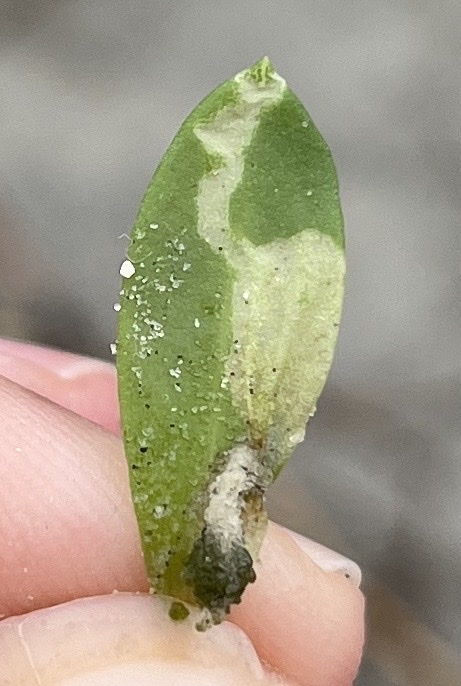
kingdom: Animalia
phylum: Arthropoda
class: Insecta
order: Lepidoptera
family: Gelechiidae
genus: Gnorimoschema
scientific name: Gnorimoschema terracottella
